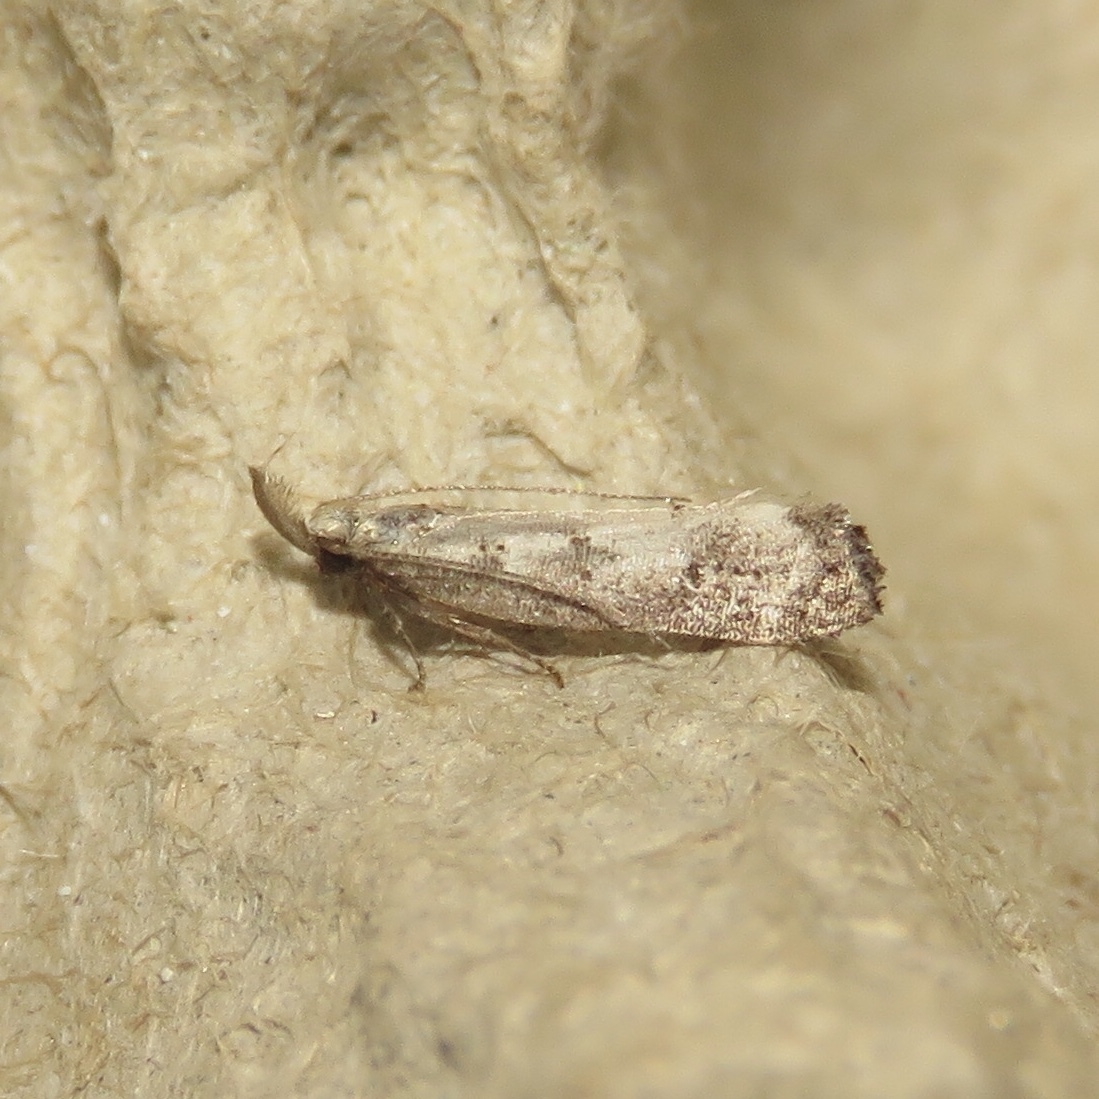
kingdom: Animalia
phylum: Arthropoda
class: Insecta
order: Lepidoptera
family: Gelechiidae
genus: Dichomeris
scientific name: Dichomeris inversella
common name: Inverse dichomeris moth
